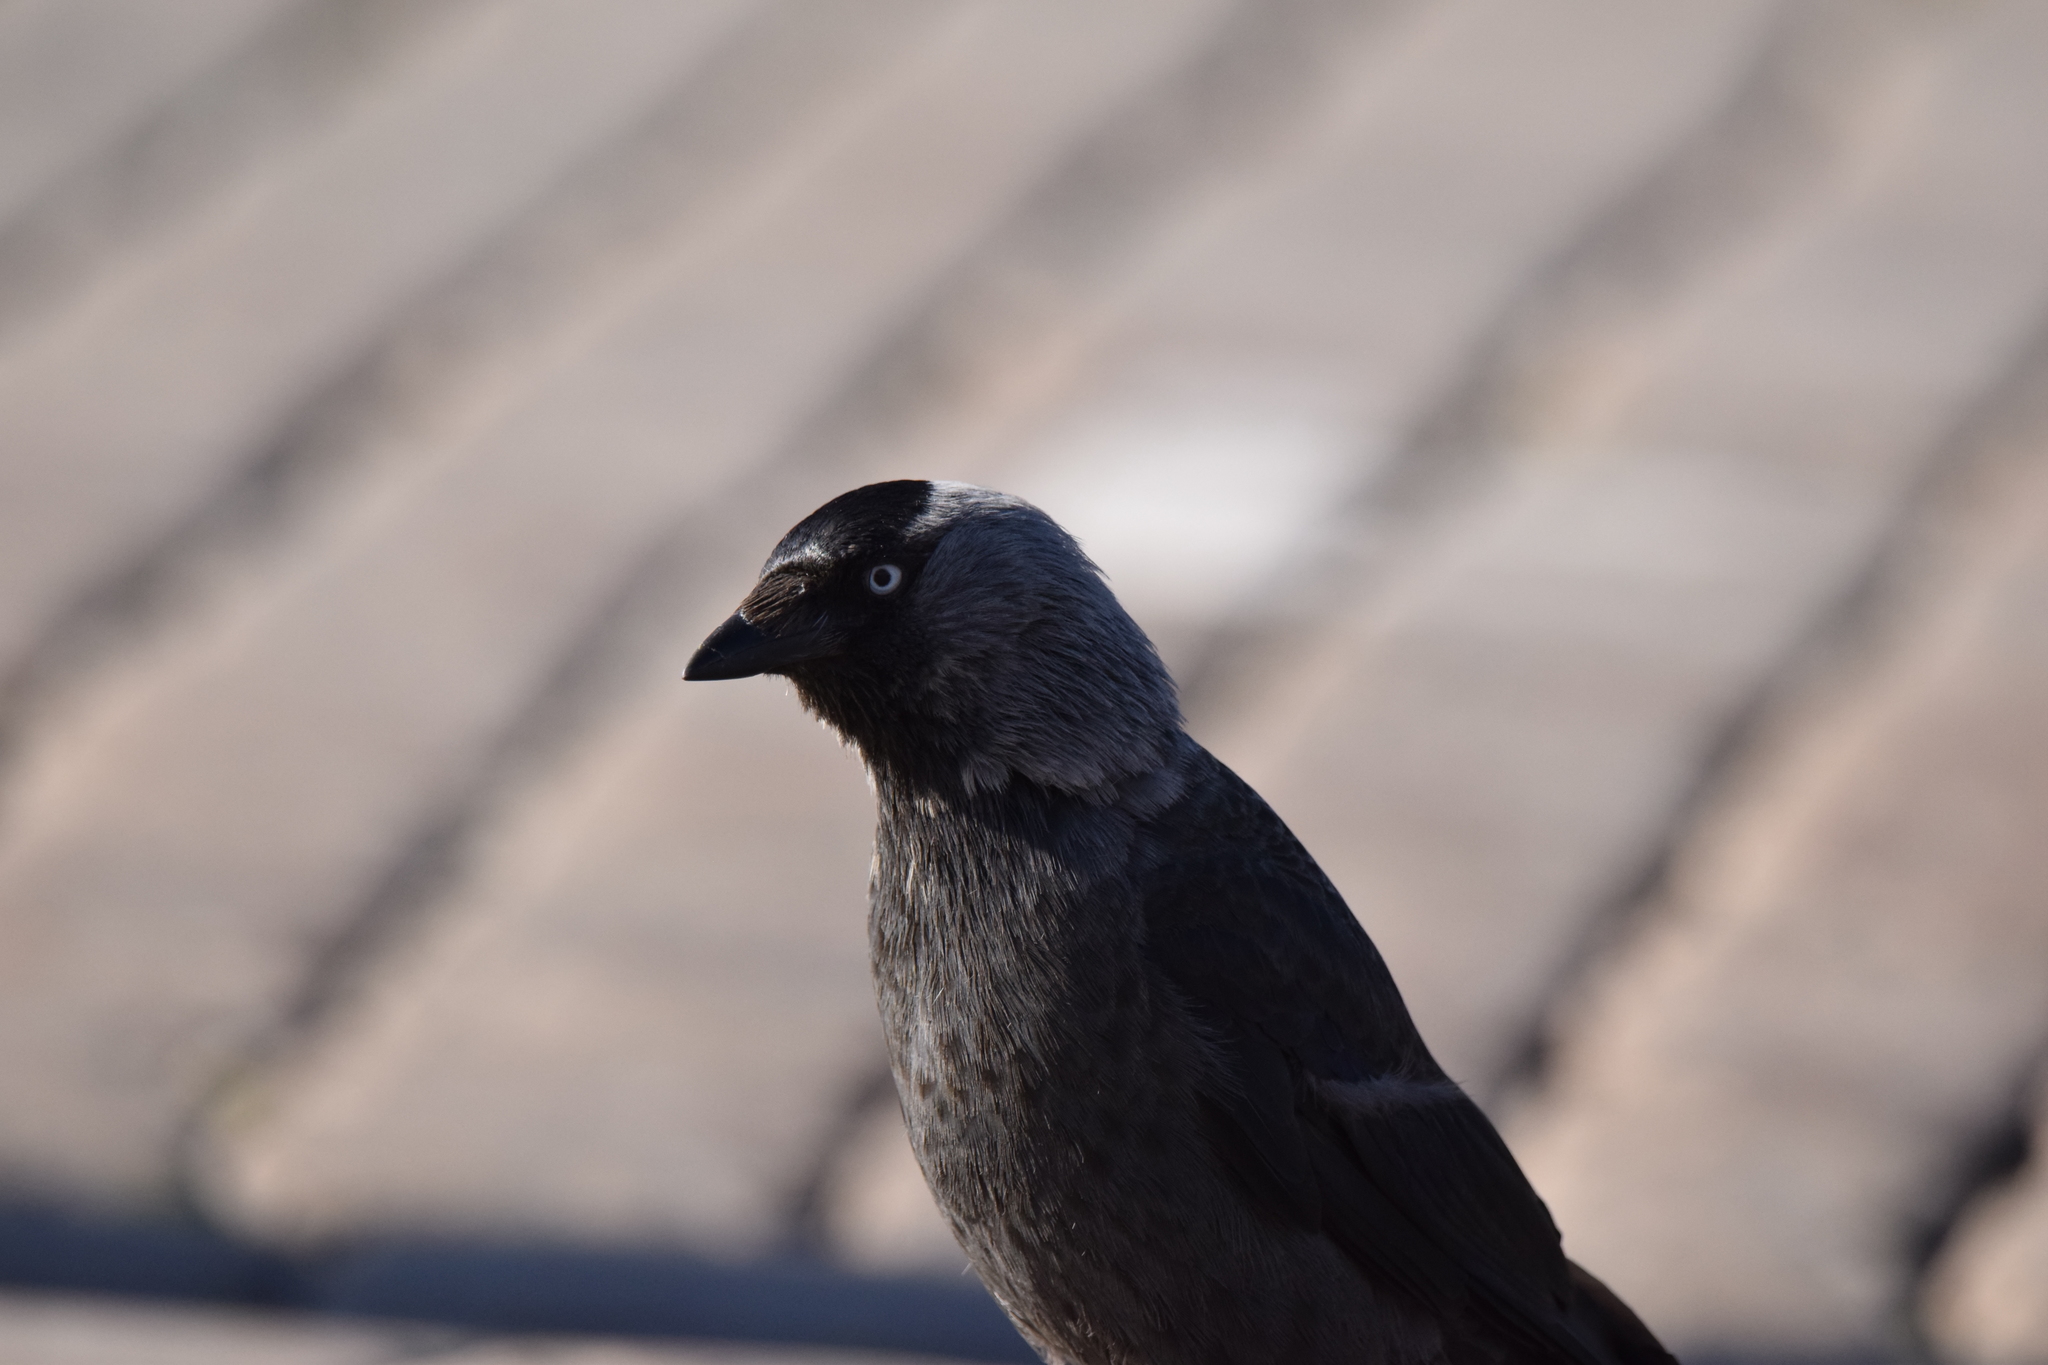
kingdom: Animalia
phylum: Chordata
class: Aves
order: Passeriformes
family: Corvidae
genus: Coloeus
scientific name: Coloeus monedula
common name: Western jackdaw
